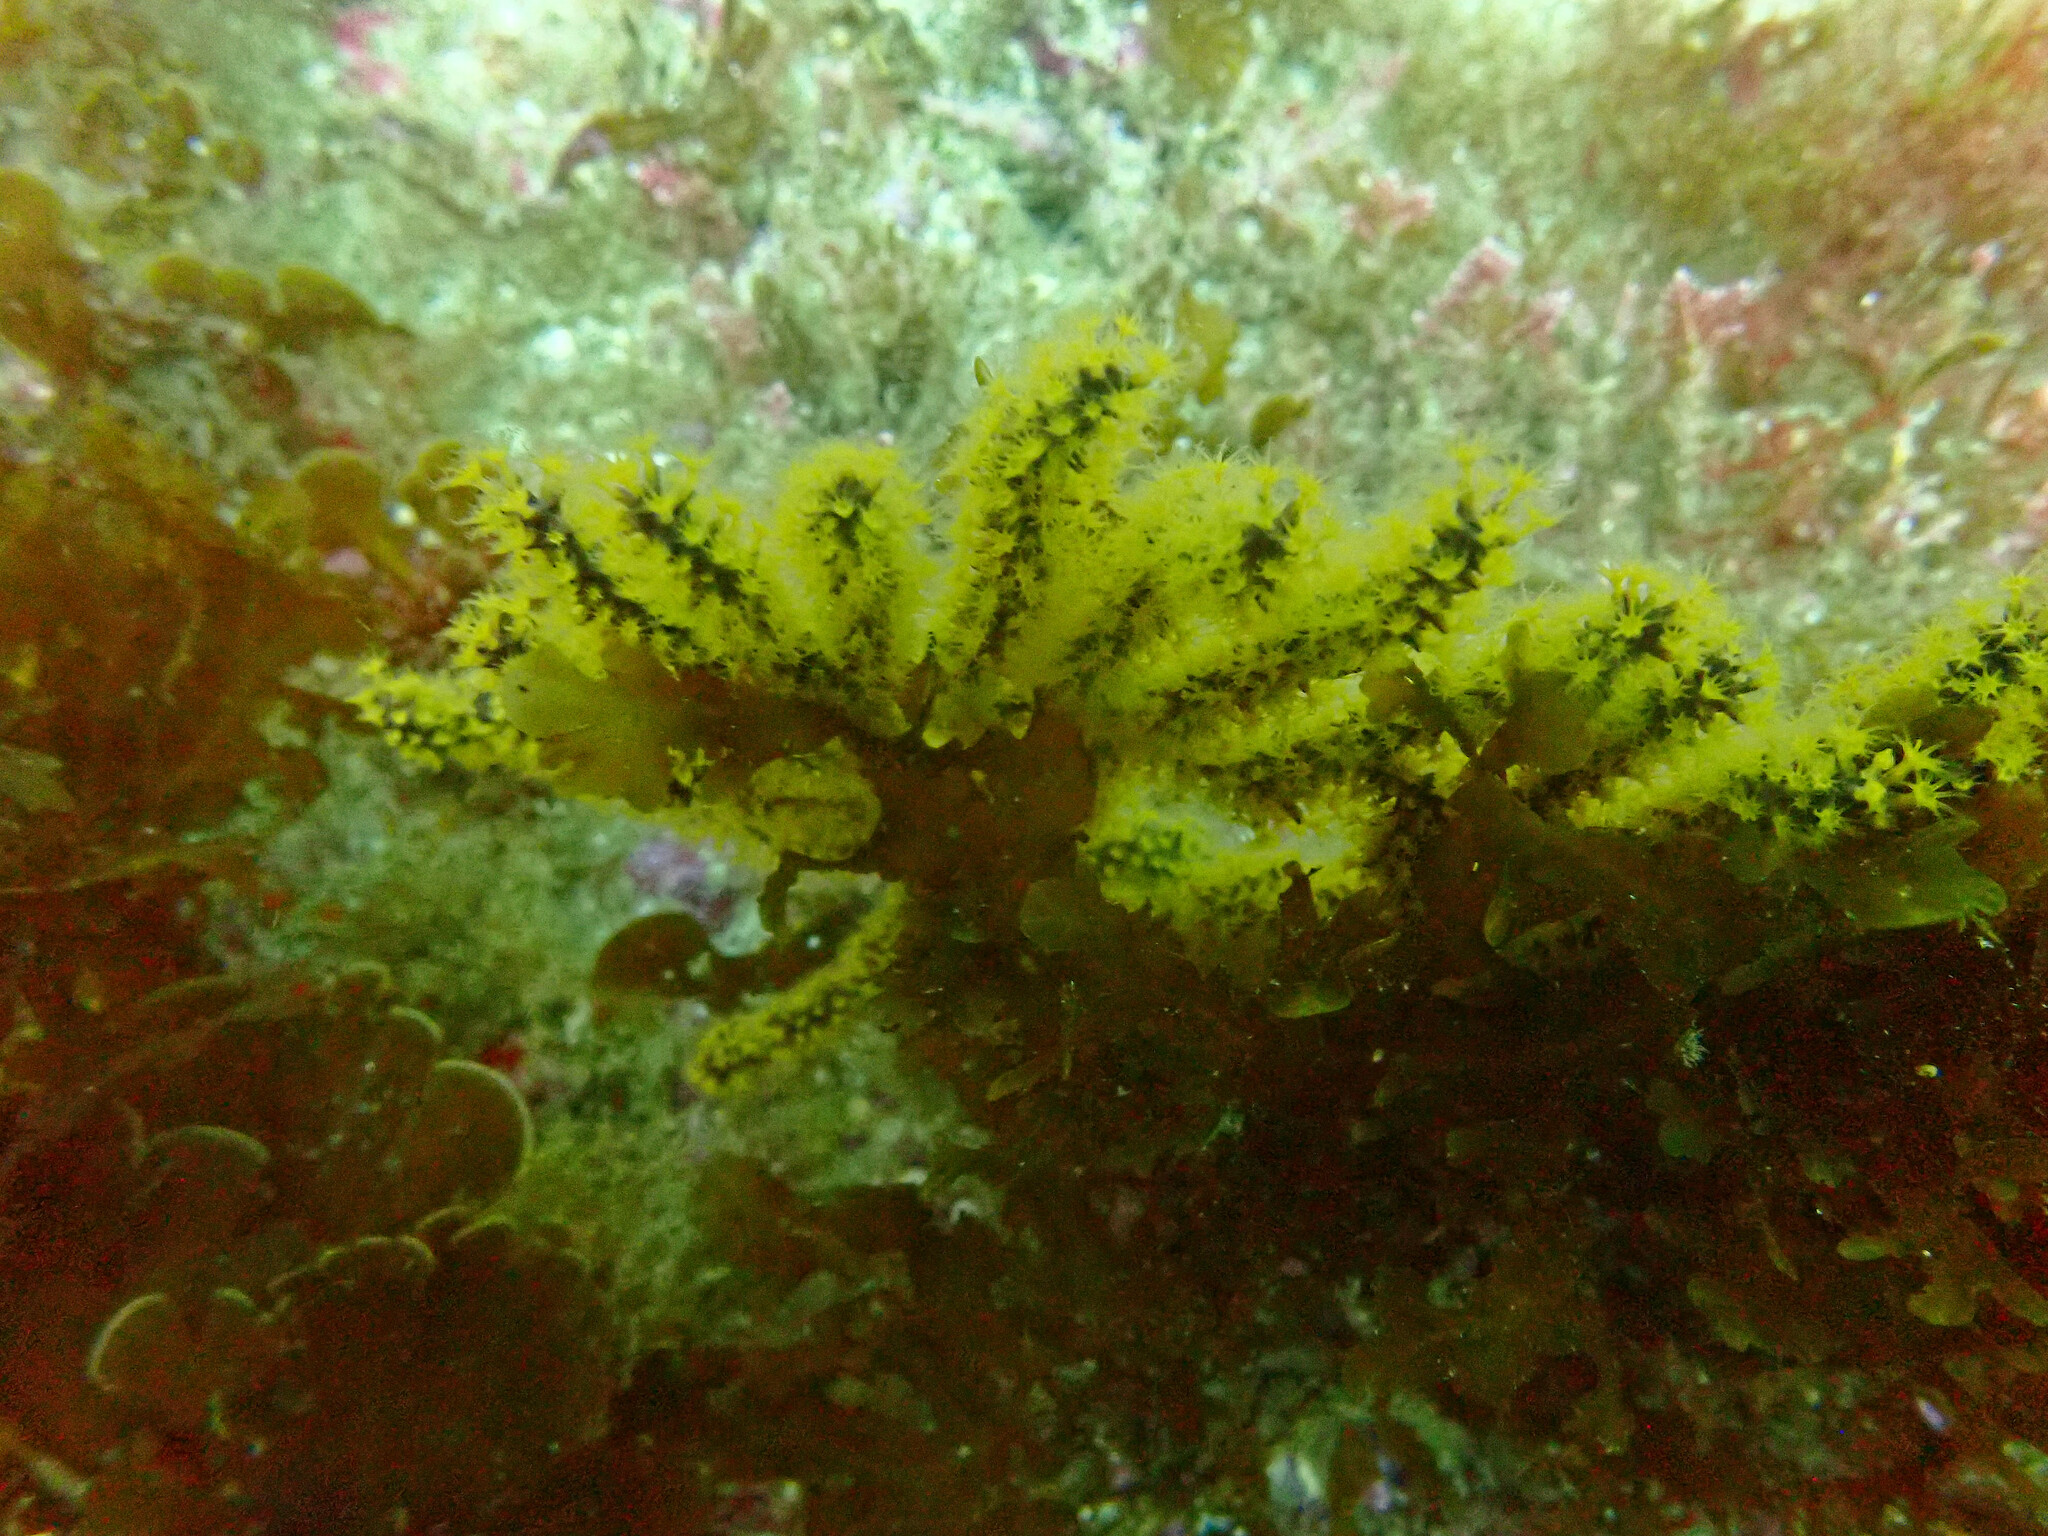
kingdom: Animalia
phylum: Cnidaria
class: Anthozoa
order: Malacalcyonacea
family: Plexauridae
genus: Muricea
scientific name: Muricea californica
